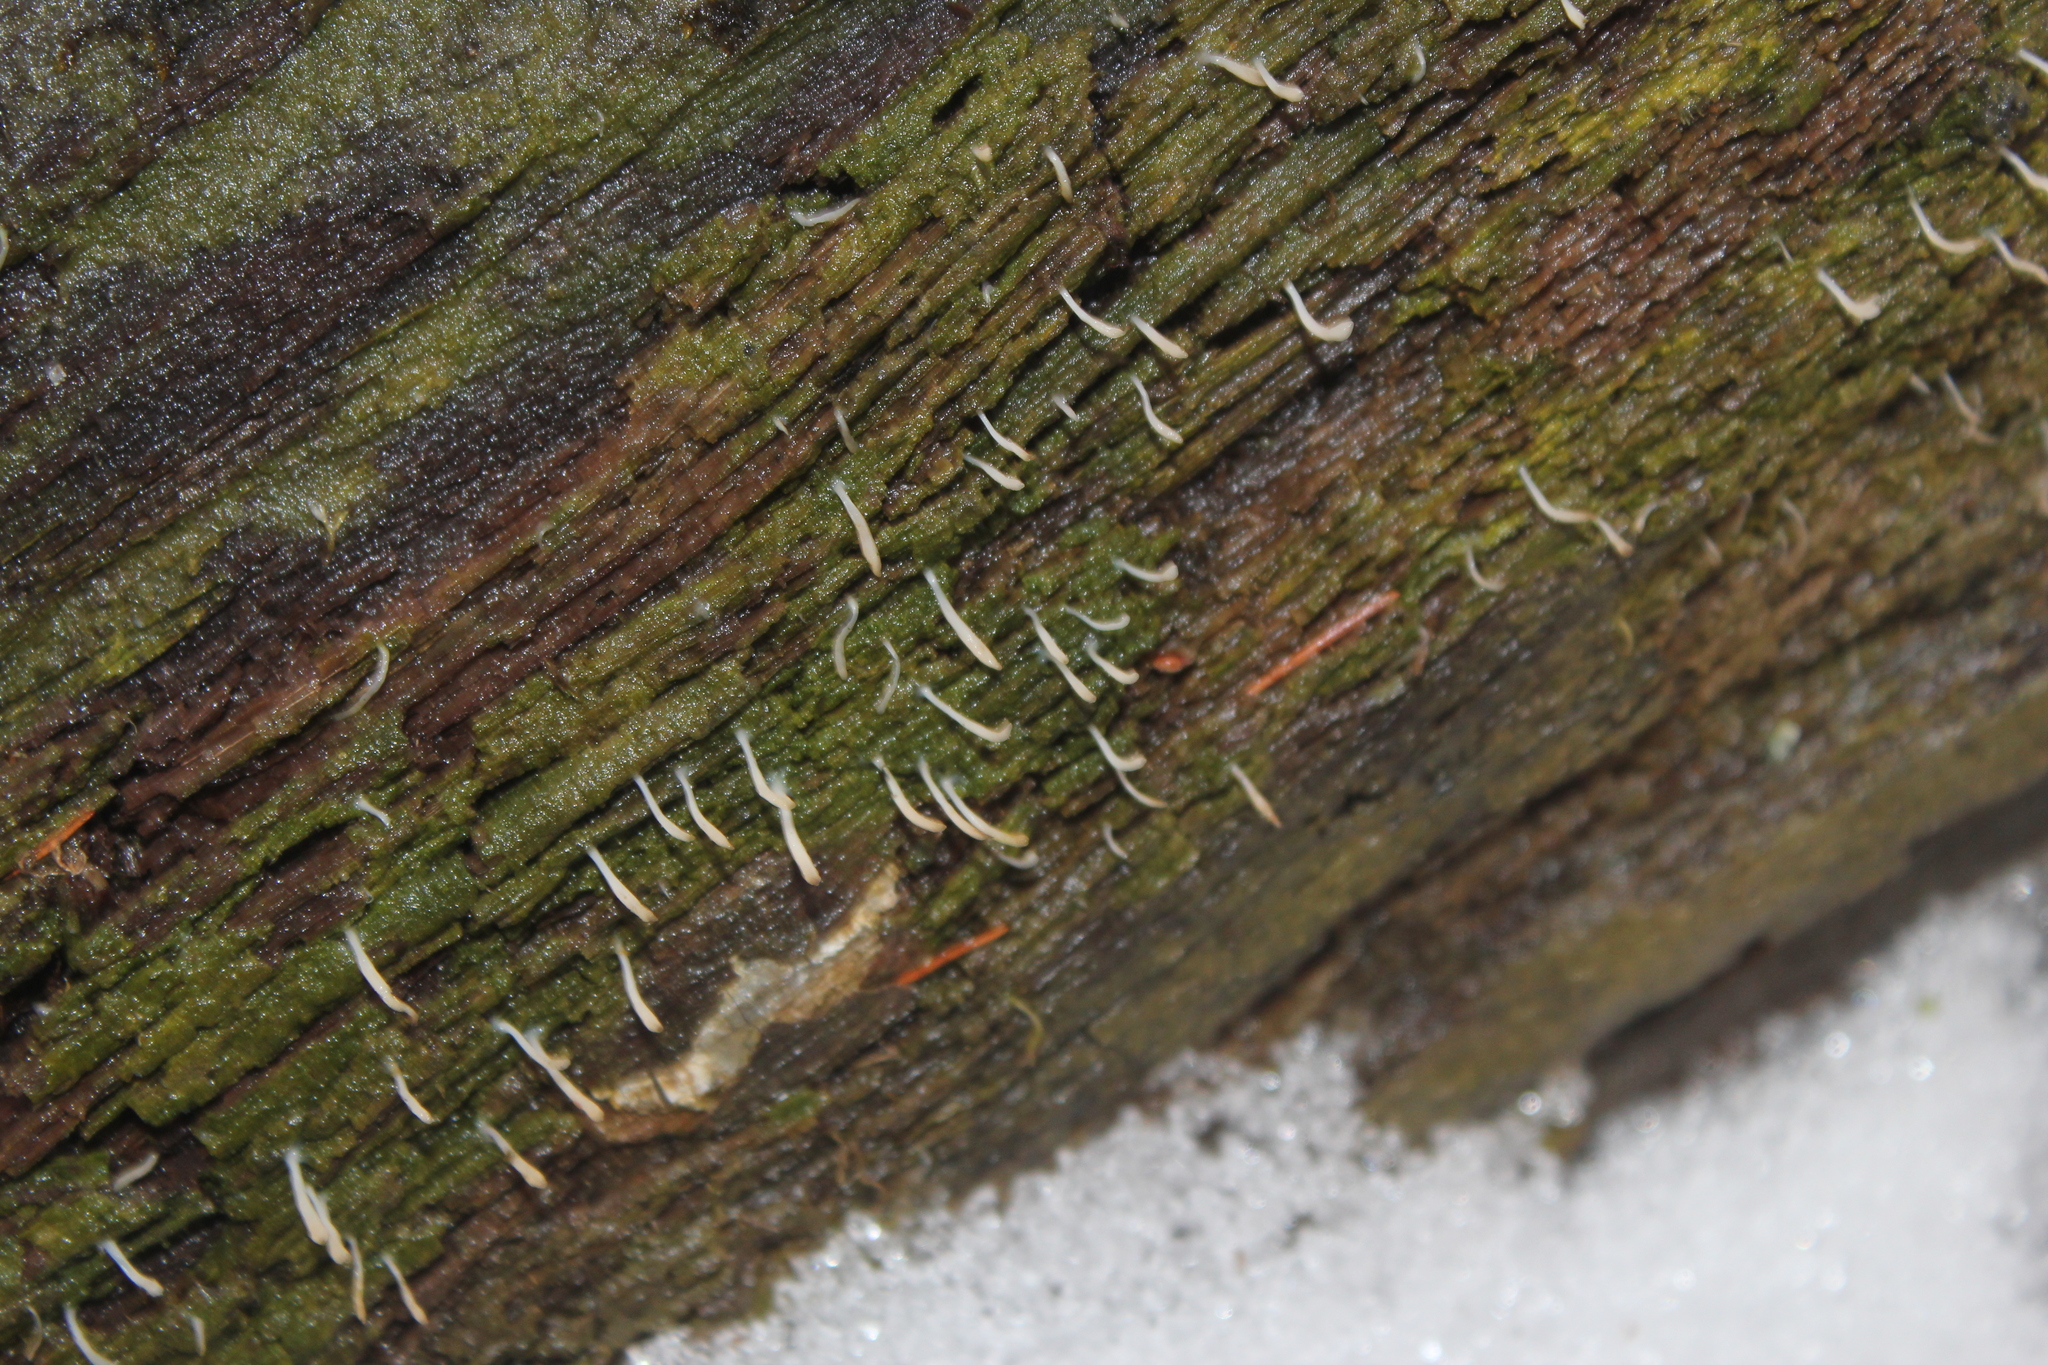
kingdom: Fungi
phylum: Basidiomycota
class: Agaricomycetes
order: Cantharellales
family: Hydnaceae
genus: Multiclavula
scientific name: Multiclavula mucida
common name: White green-algae coral
